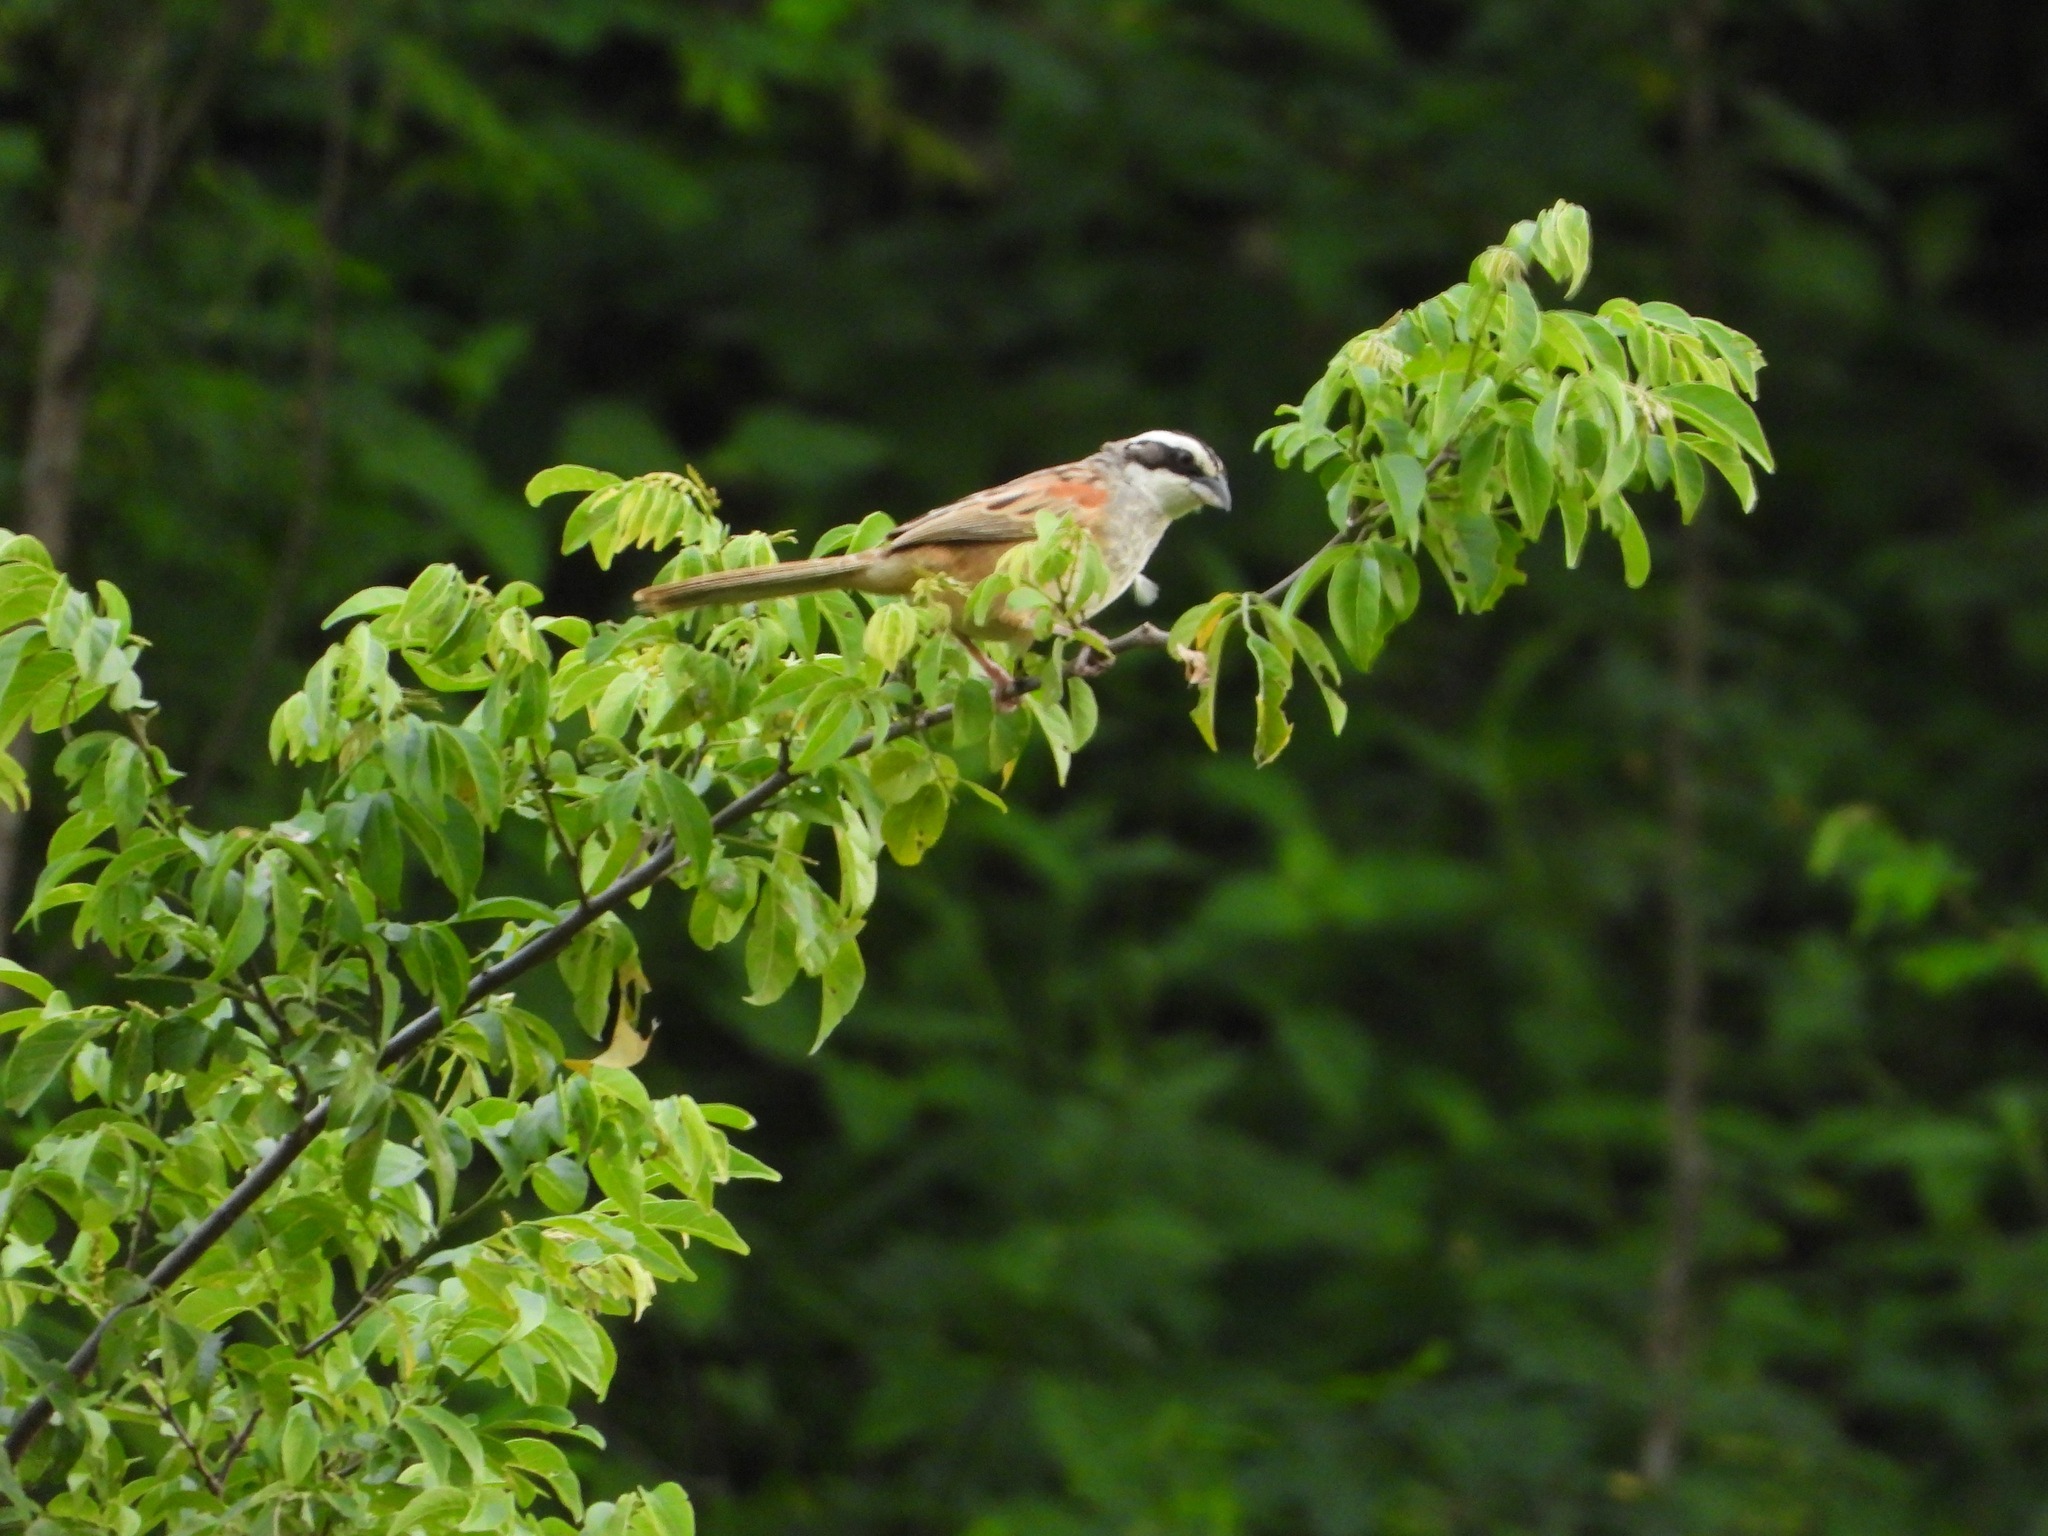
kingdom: Animalia
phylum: Chordata
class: Aves
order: Passeriformes
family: Passerellidae
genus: Peucaea
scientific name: Peucaea ruficauda
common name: Stripe-headed sparrow
